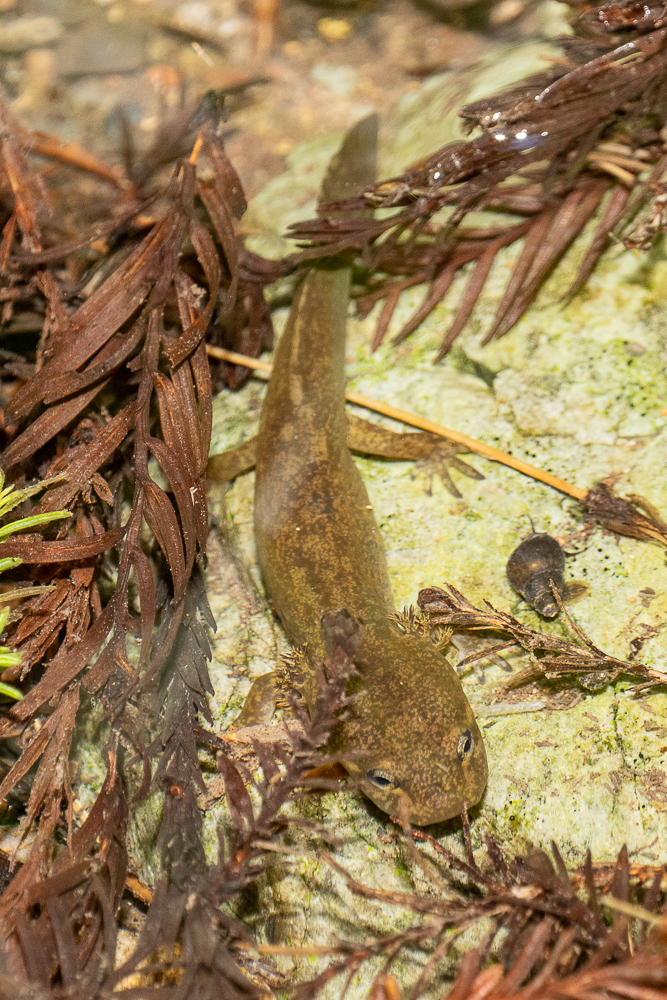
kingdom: Animalia
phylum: Chordata
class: Amphibia
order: Caudata
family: Ambystomatidae
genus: Dicamptodon
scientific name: Dicamptodon ensatus
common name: California giant salamander
